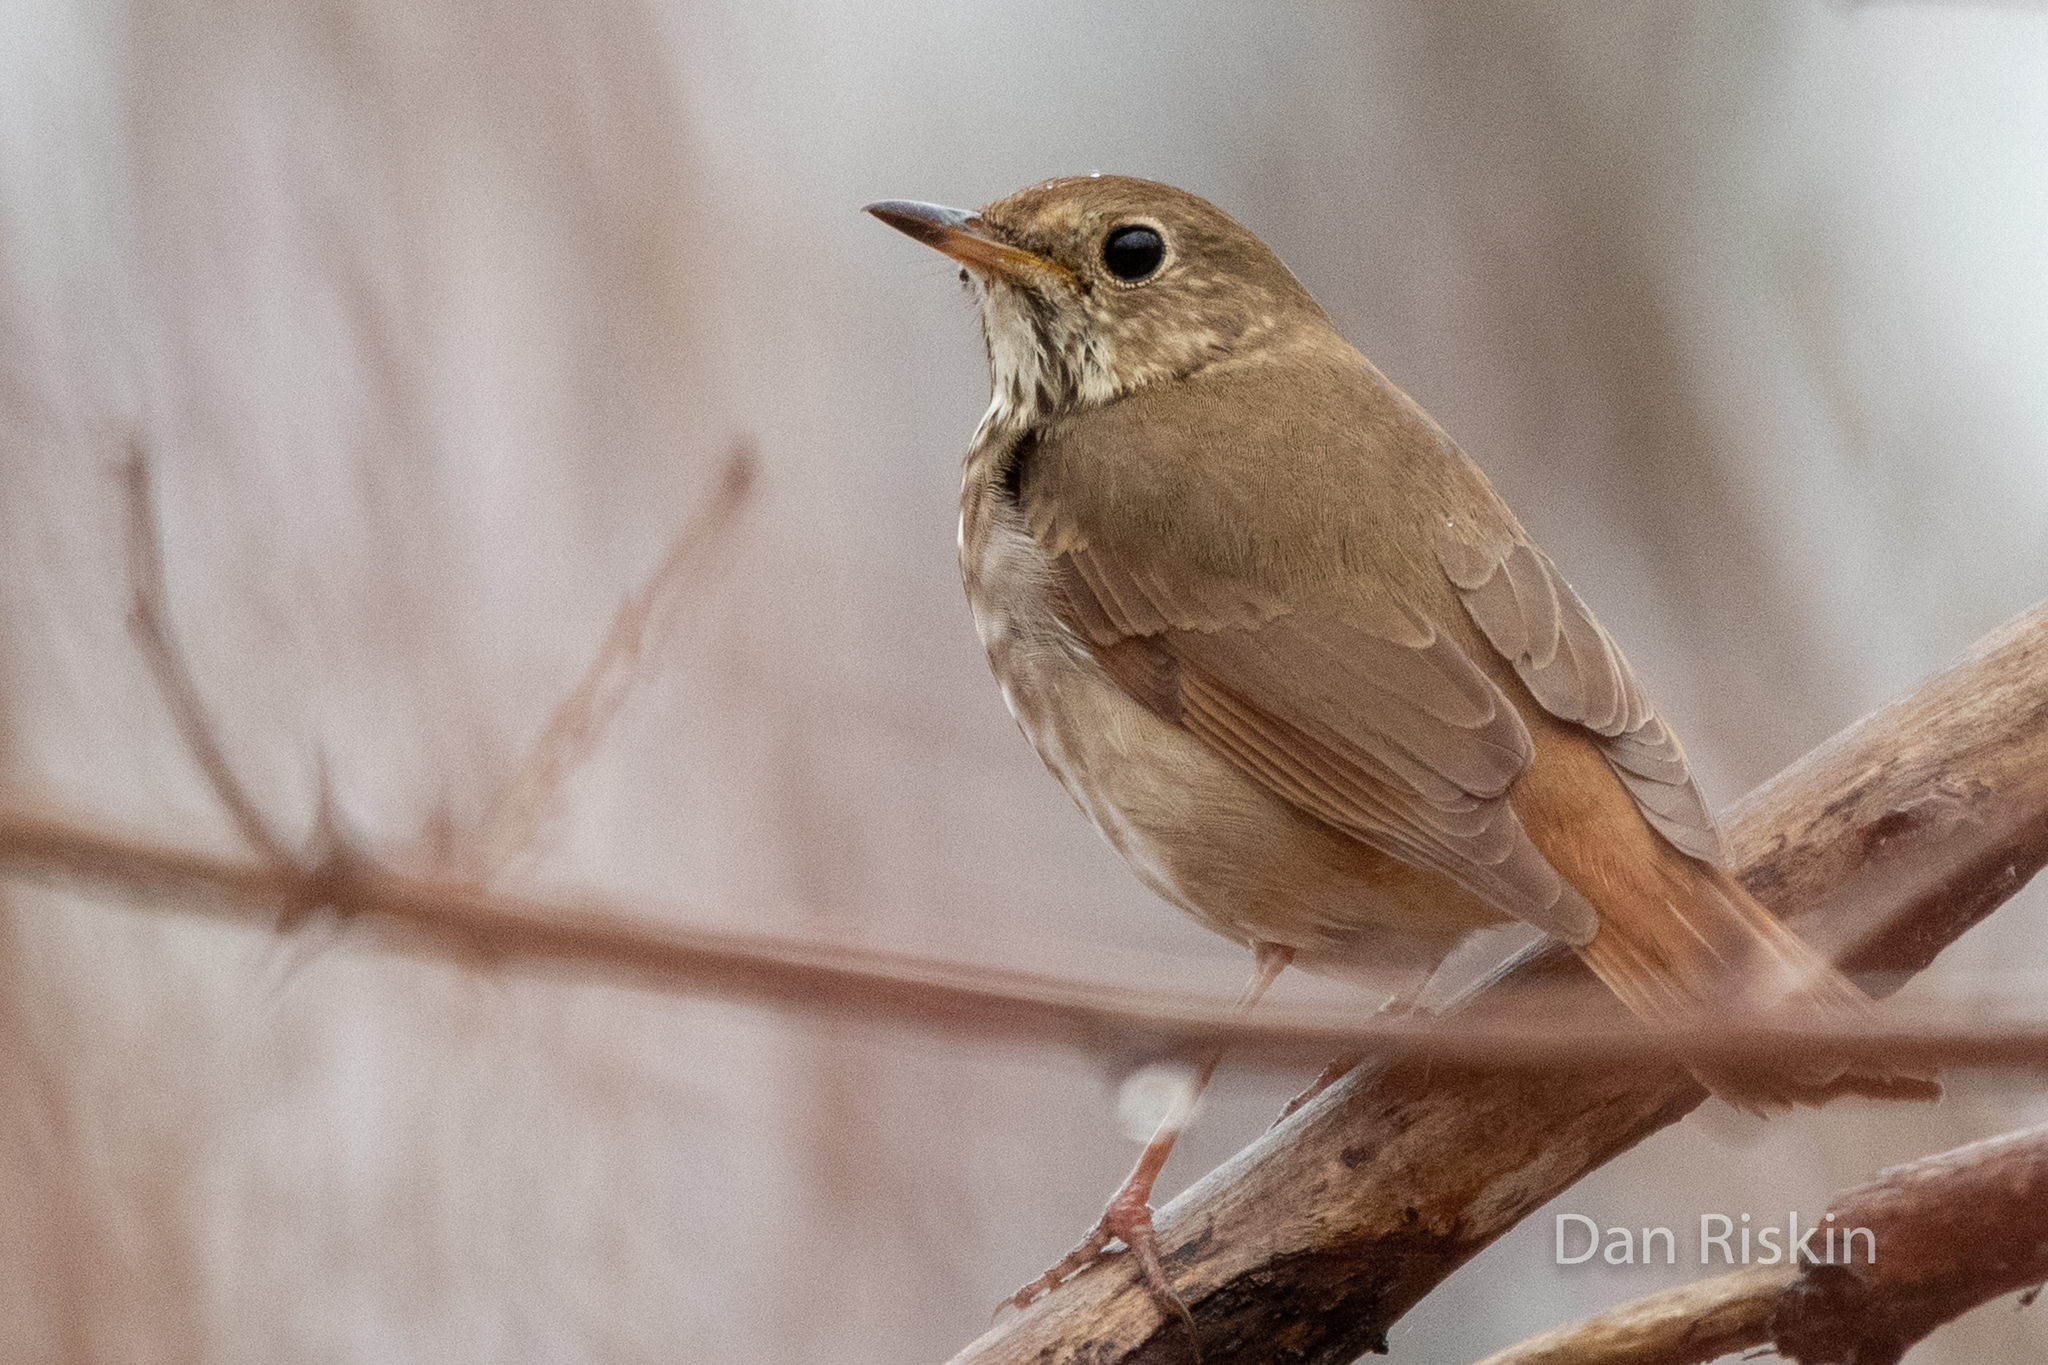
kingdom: Animalia
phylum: Chordata
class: Aves
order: Passeriformes
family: Turdidae
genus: Catharus
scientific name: Catharus guttatus
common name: Hermit thrush
